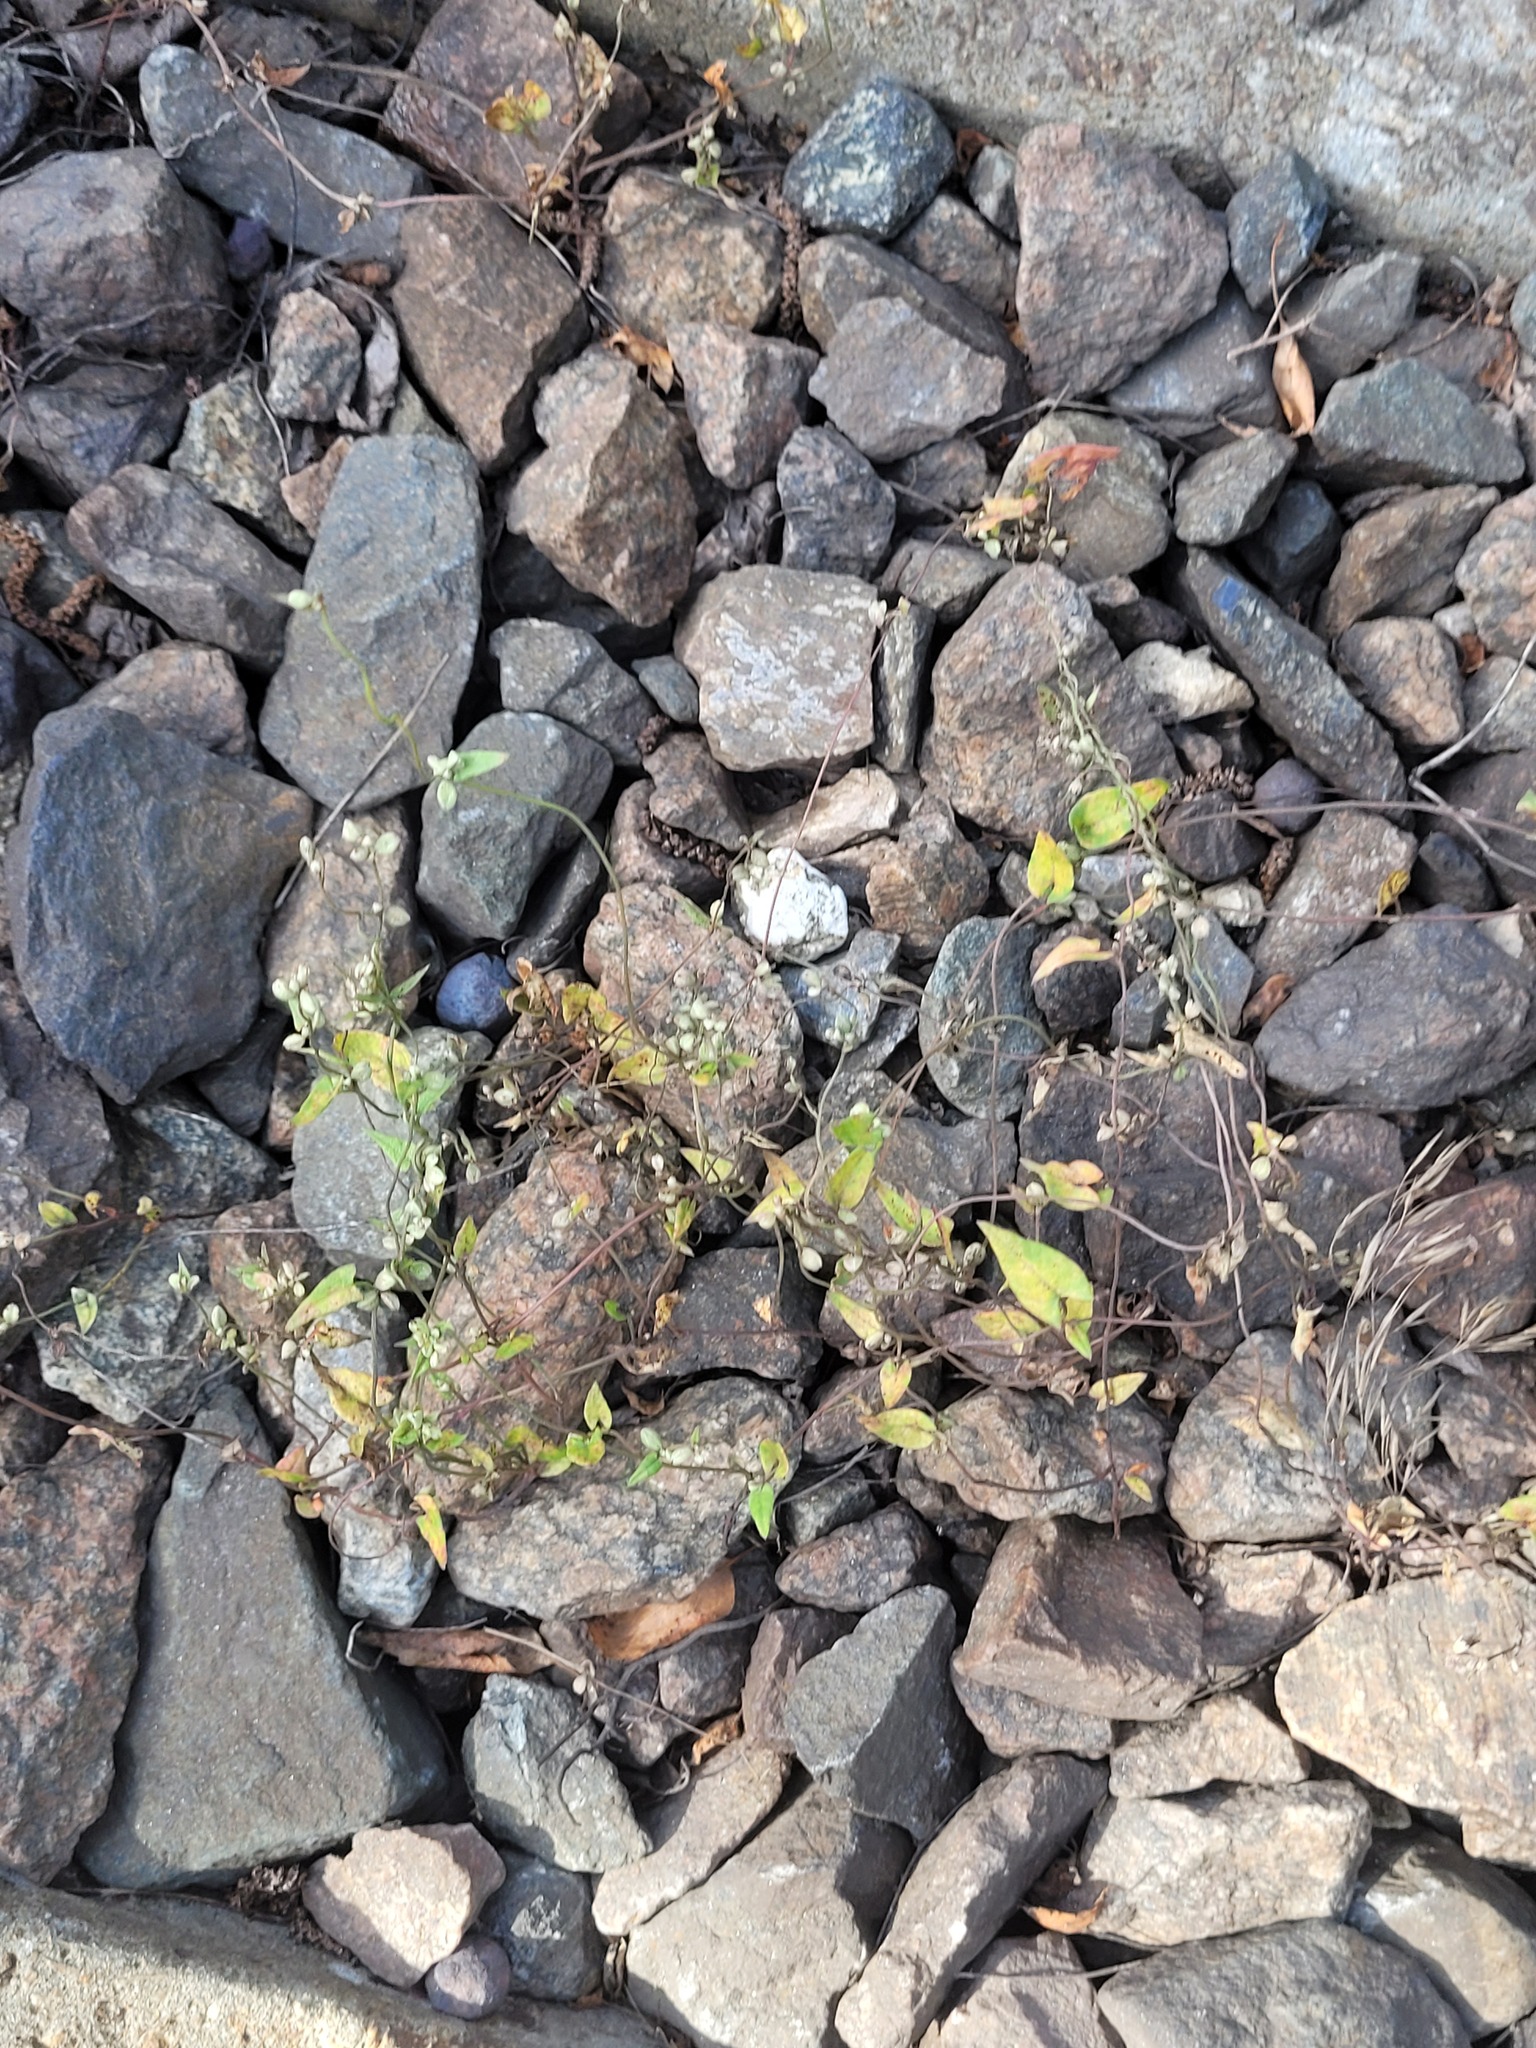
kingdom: Plantae
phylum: Tracheophyta
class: Magnoliopsida
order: Caryophyllales
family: Polygonaceae
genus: Fallopia
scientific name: Fallopia convolvulus
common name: Black bindweed
